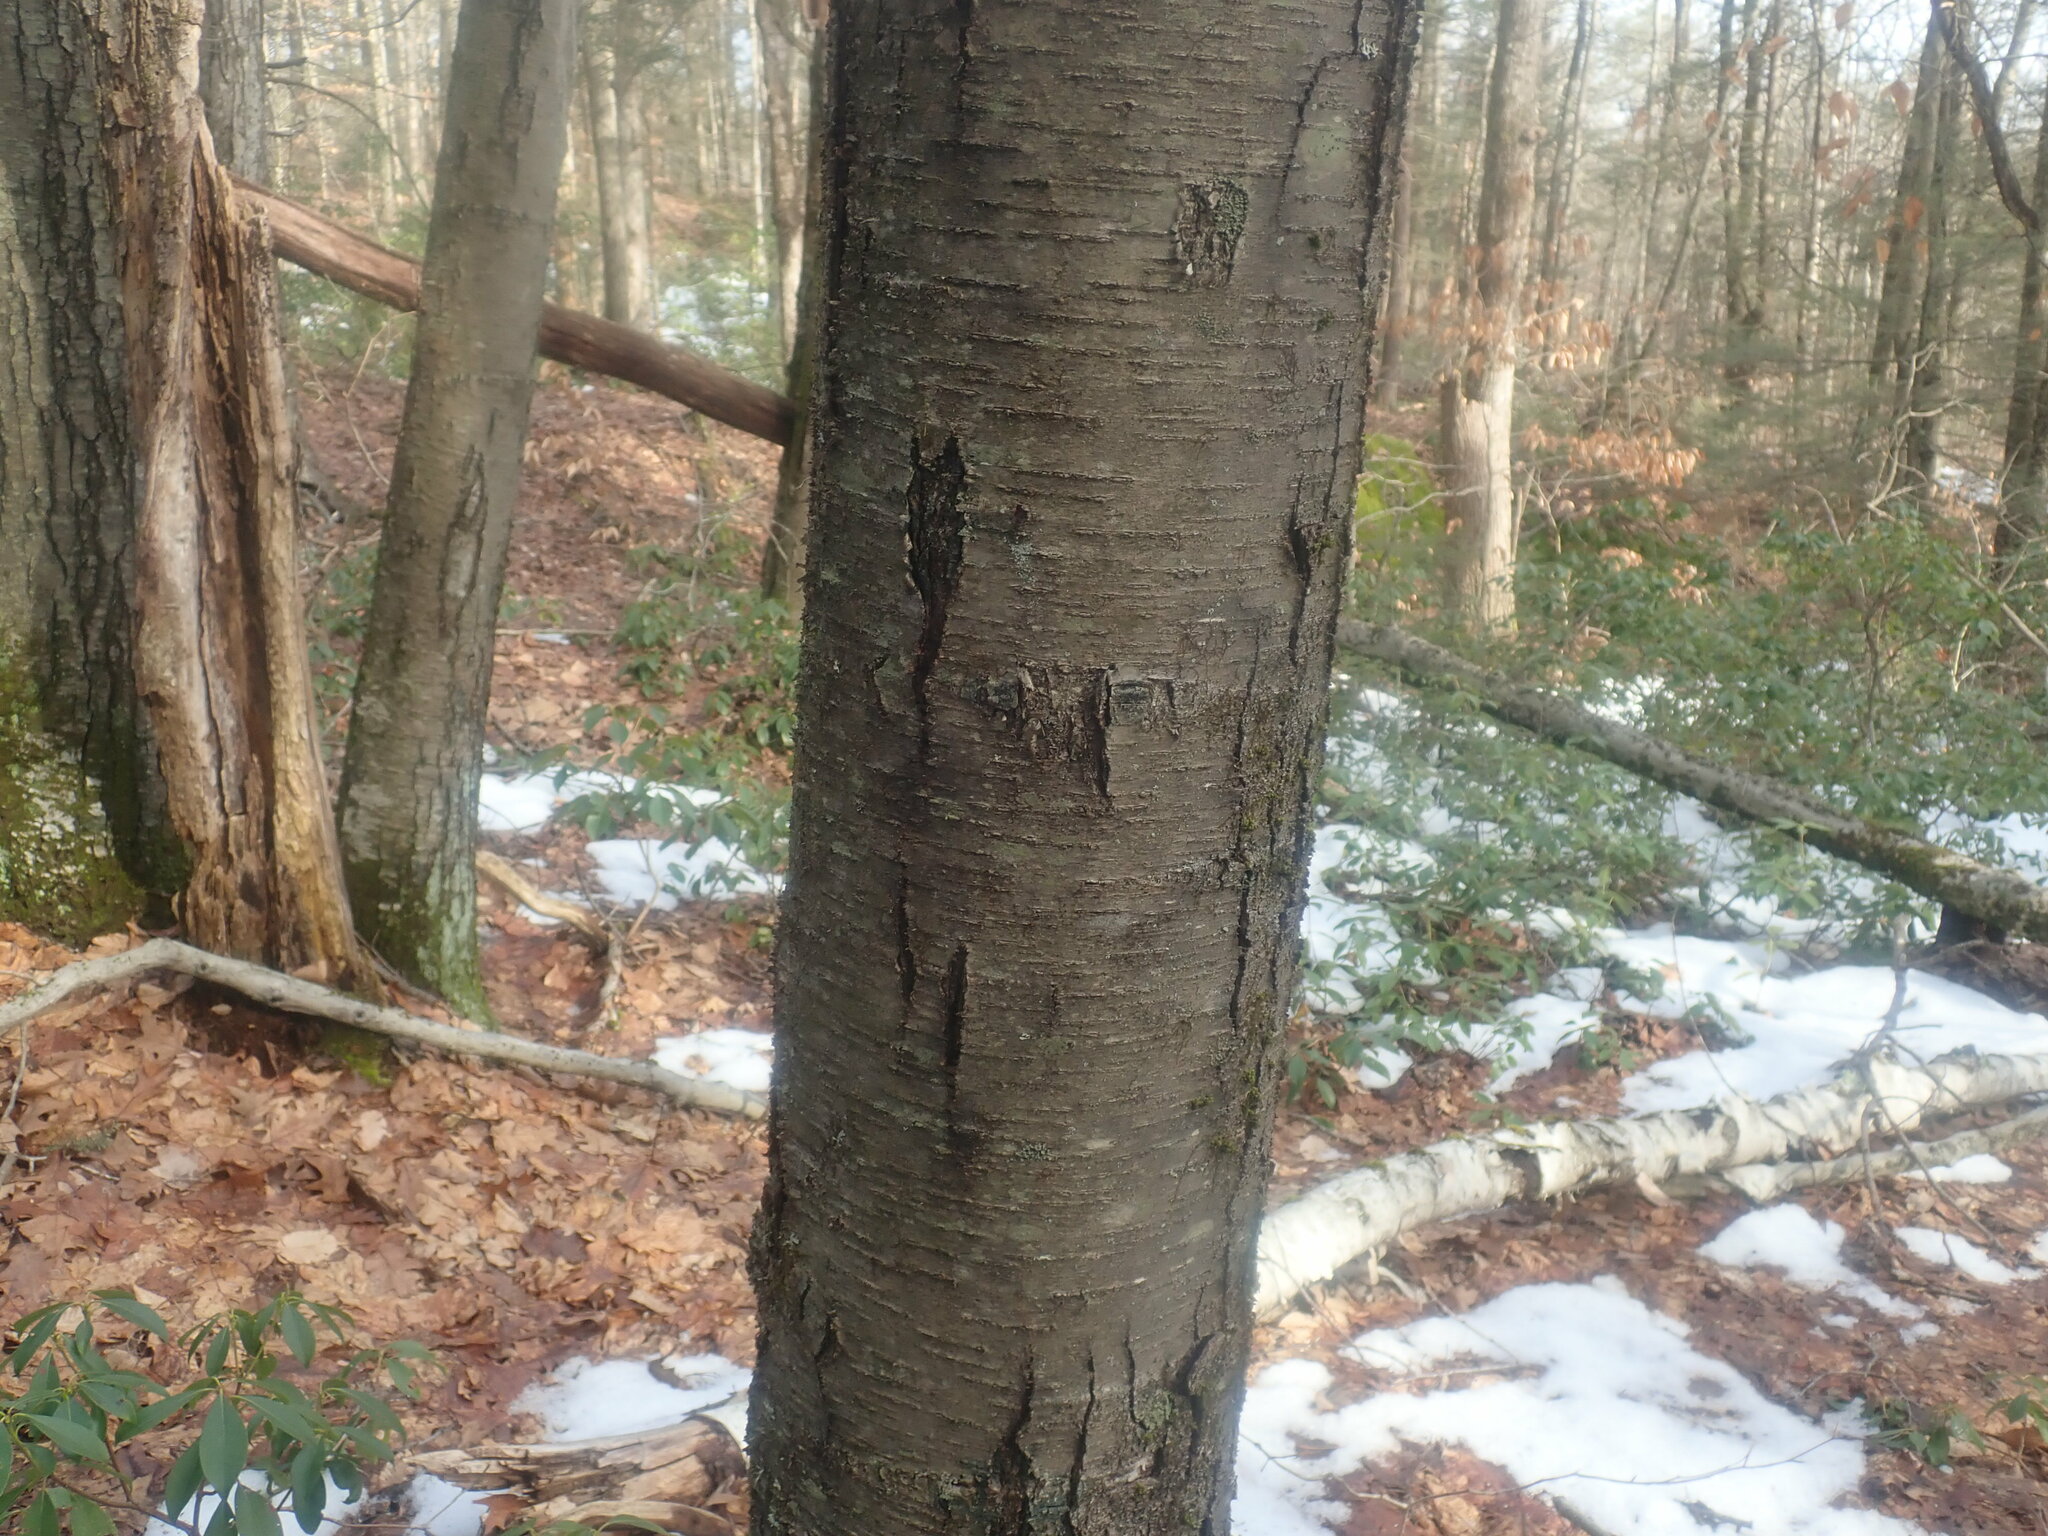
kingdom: Plantae
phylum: Tracheophyta
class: Magnoliopsida
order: Fagales
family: Betulaceae
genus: Betula
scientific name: Betula lenta
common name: Black birch
